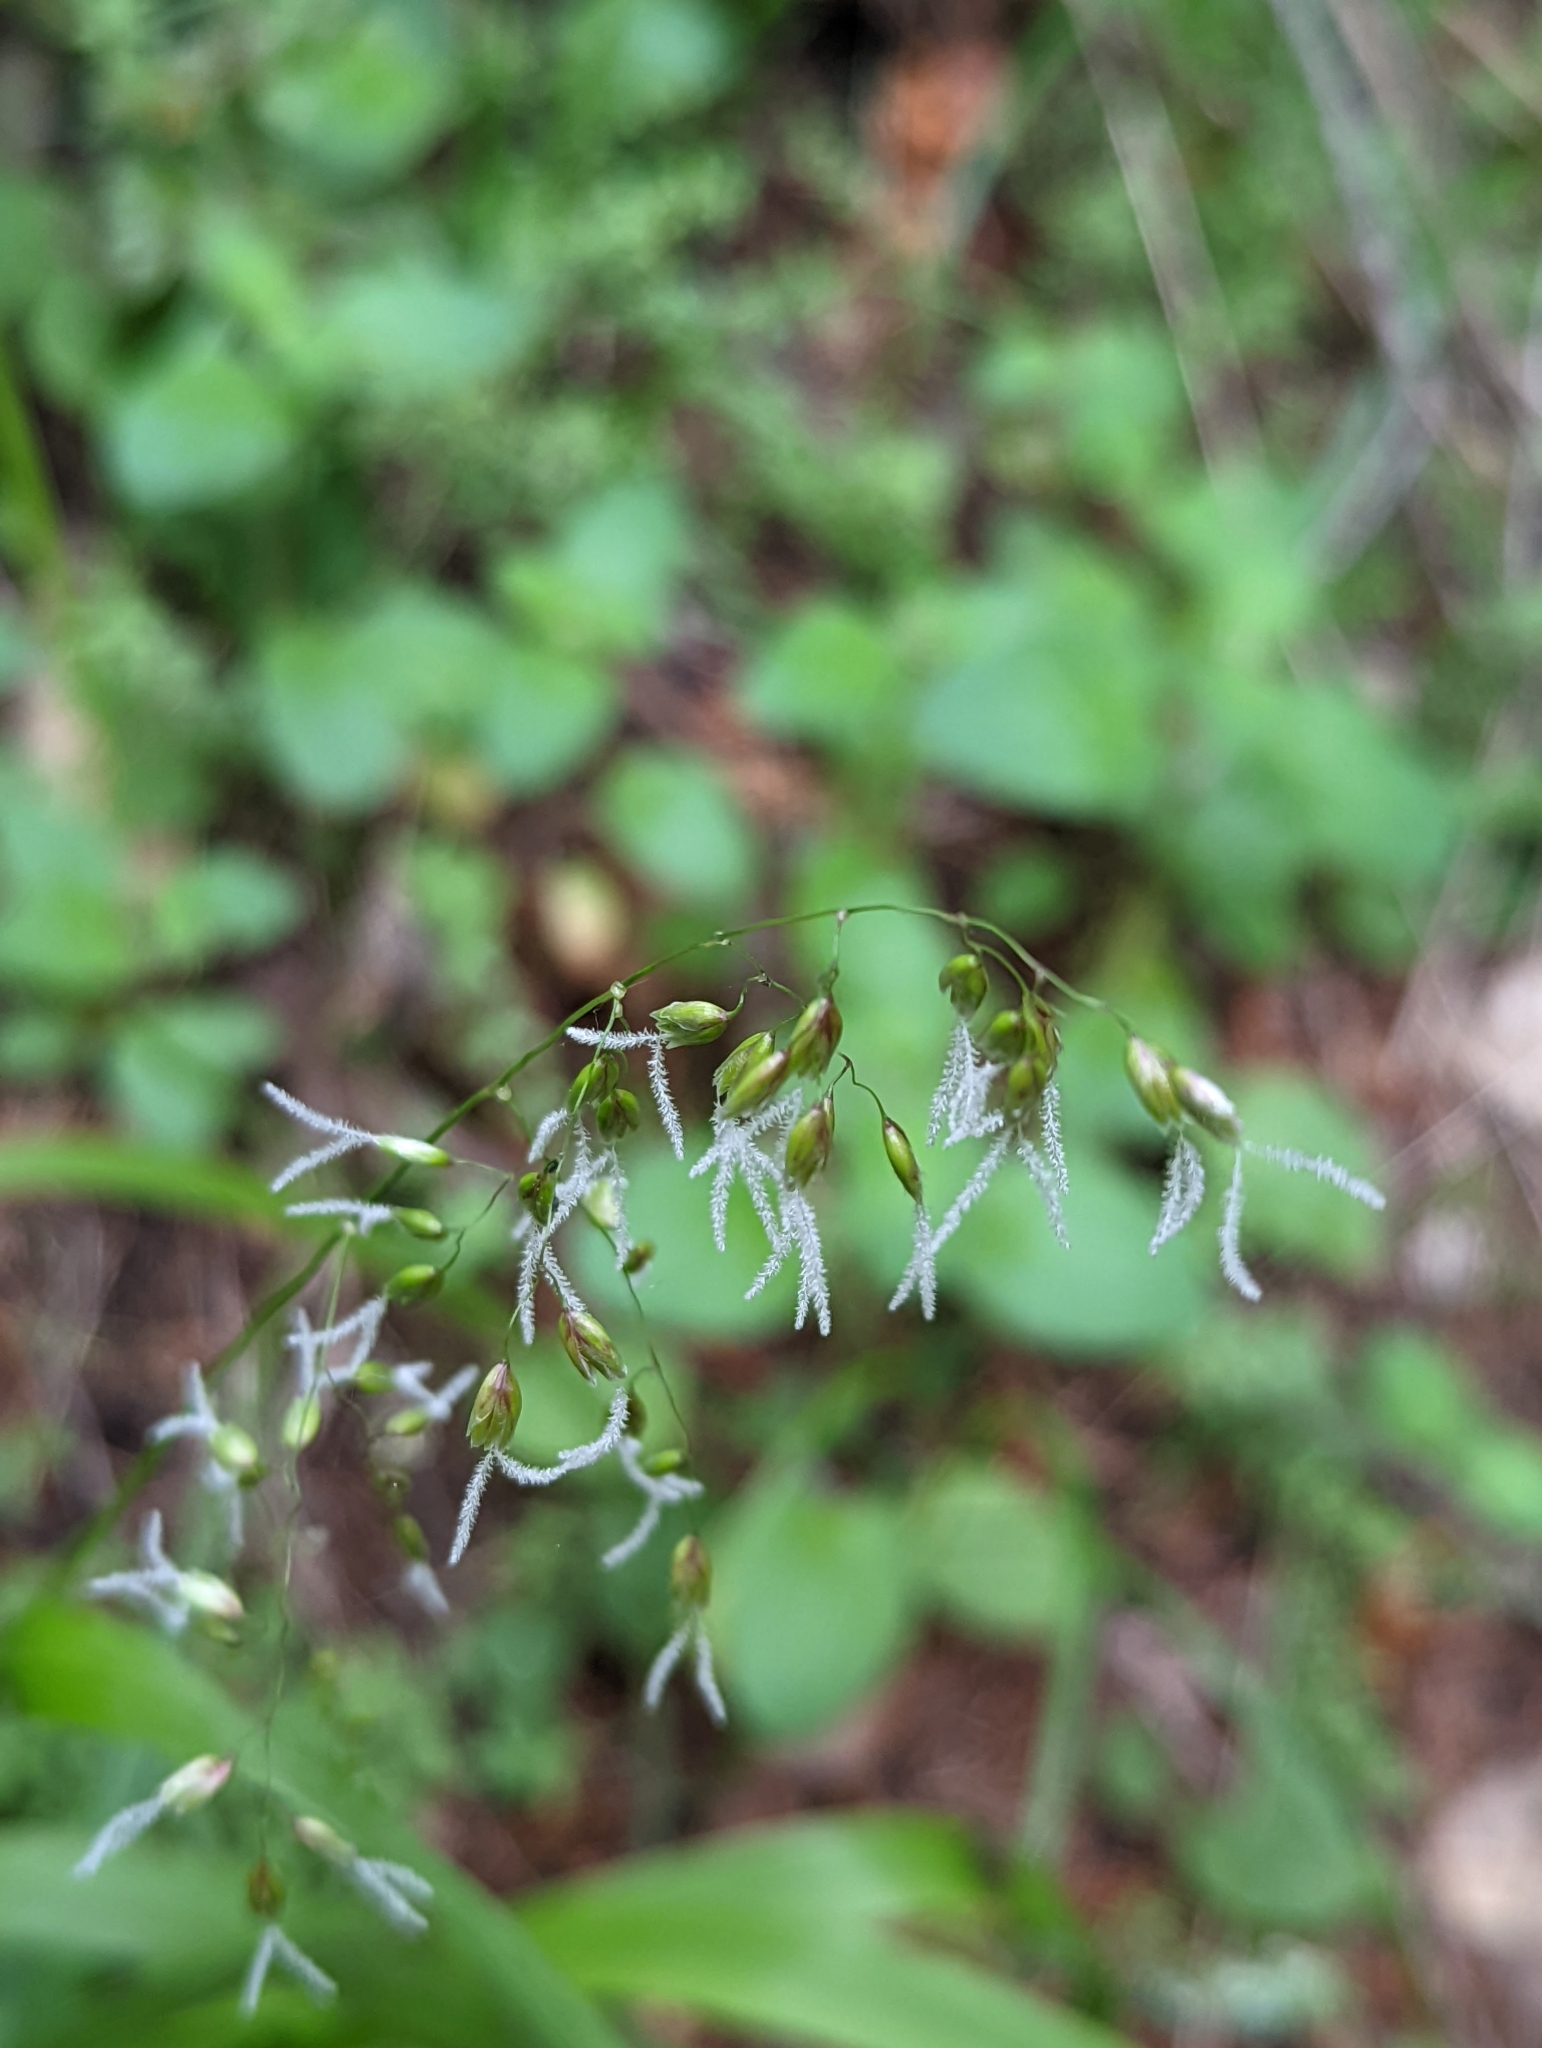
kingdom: Plantae
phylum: Tracheophyta
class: Liliopsida
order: Poales
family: Poaceae
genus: Anthoxanthum
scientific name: Anthoxanthum occidentale
